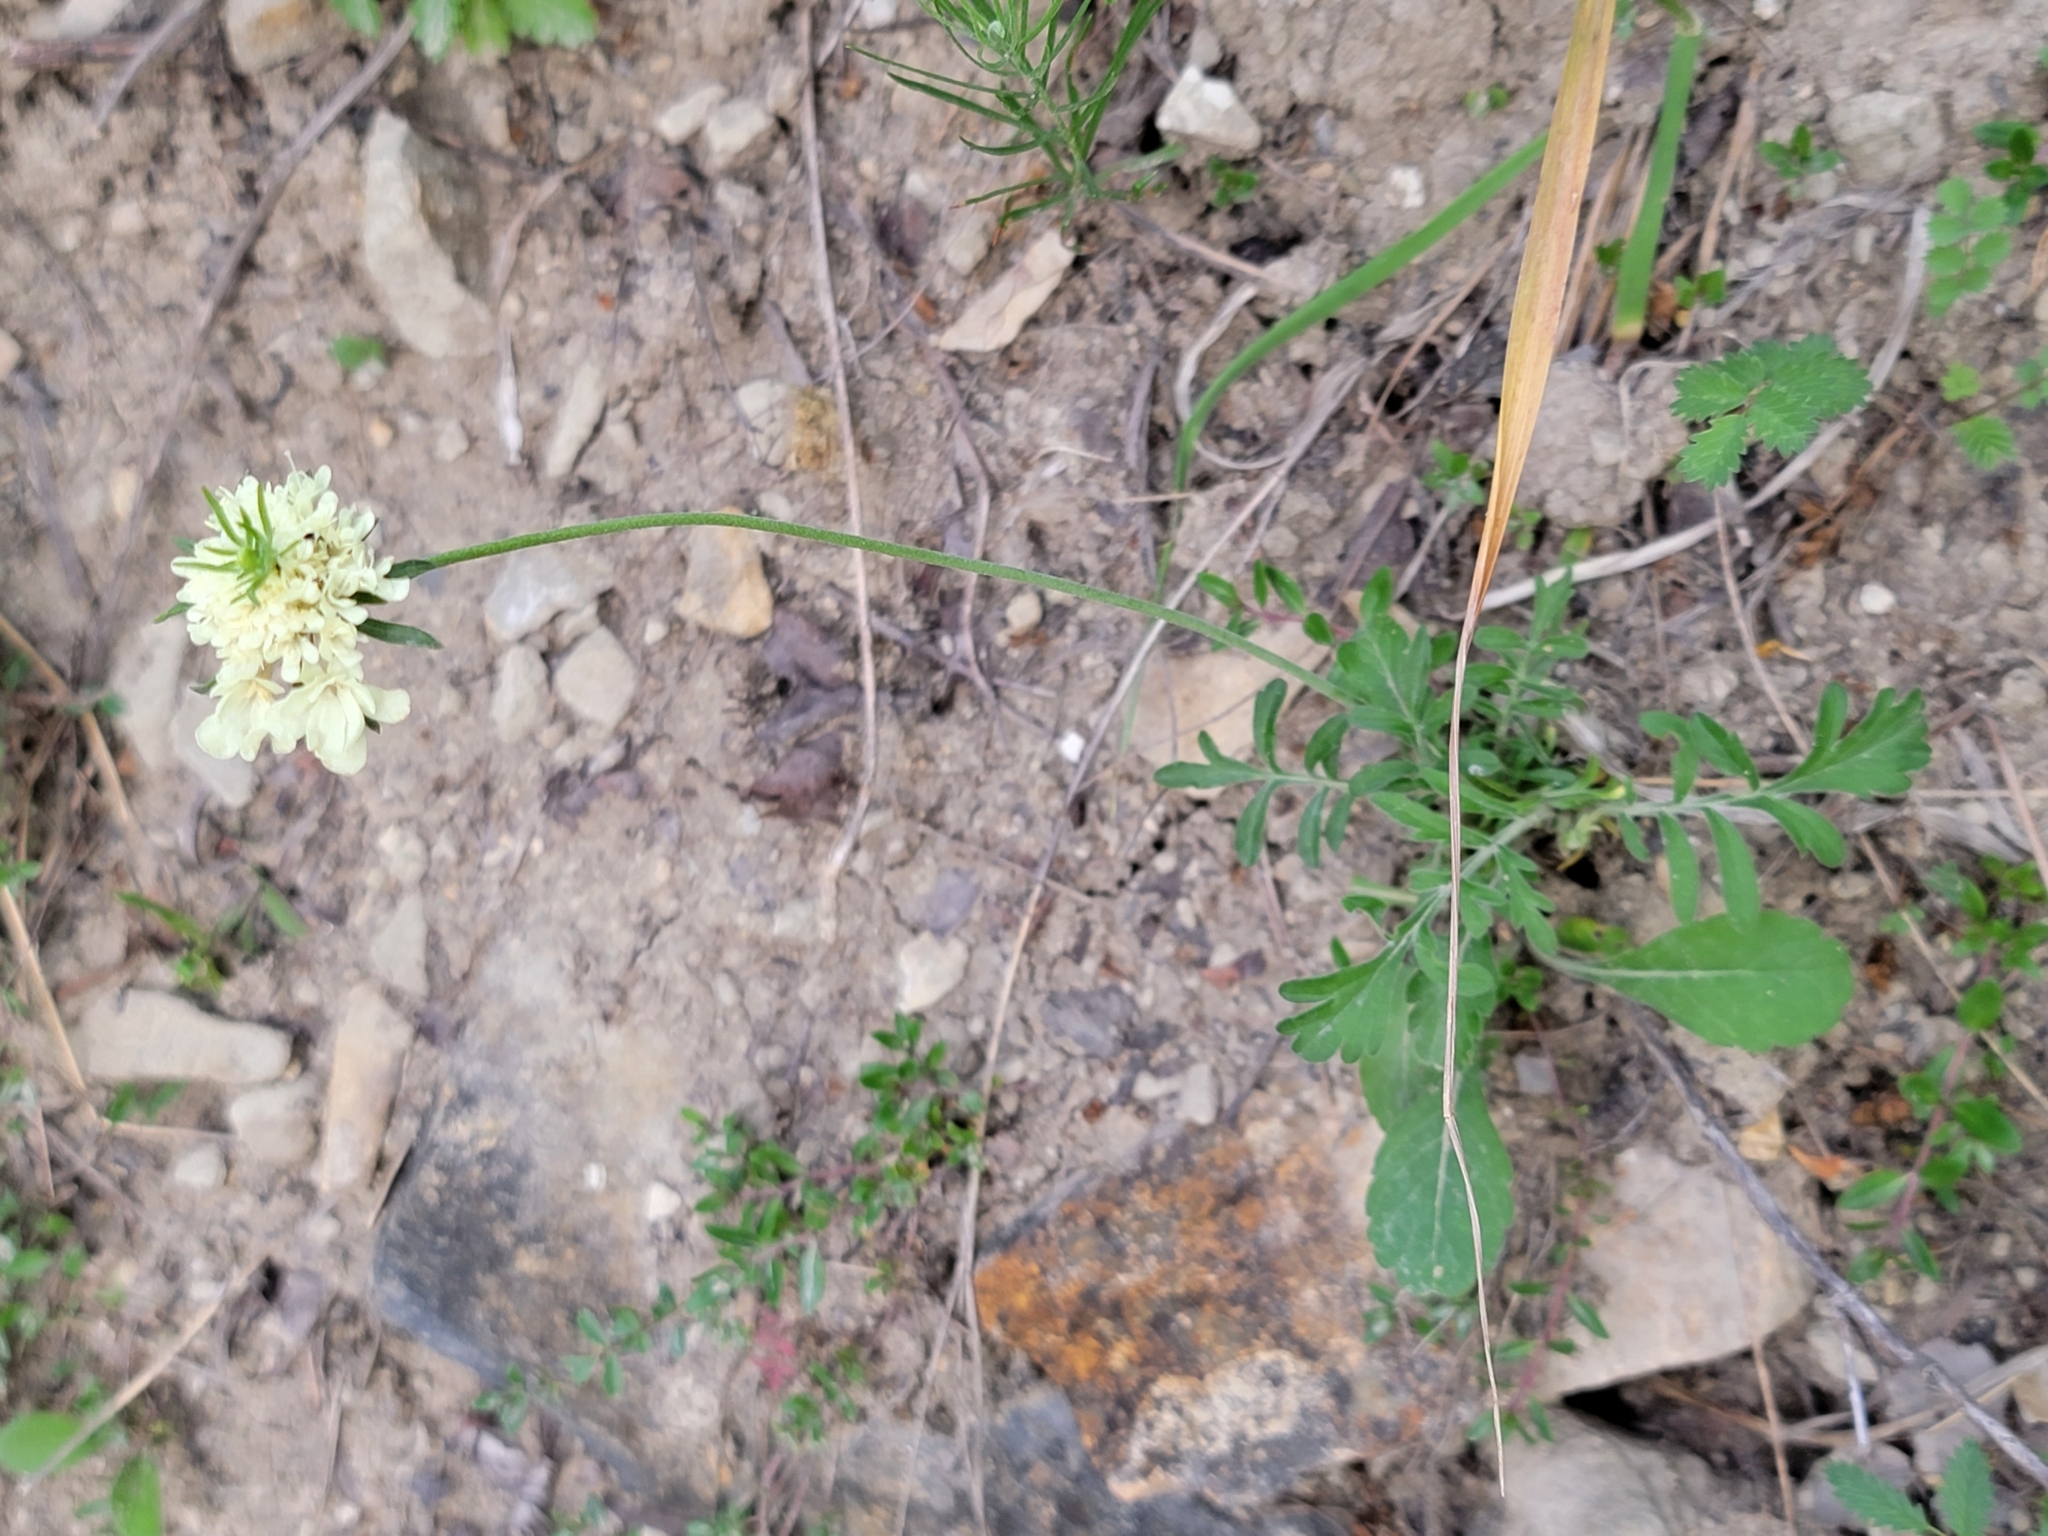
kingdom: Plantae
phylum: Tracheophyta
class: Magnoliopsida
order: Dipsacales
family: Caprifoliaceae
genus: Scabiosa
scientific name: Scabiosa ochroleuca
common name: Cream pincushions
